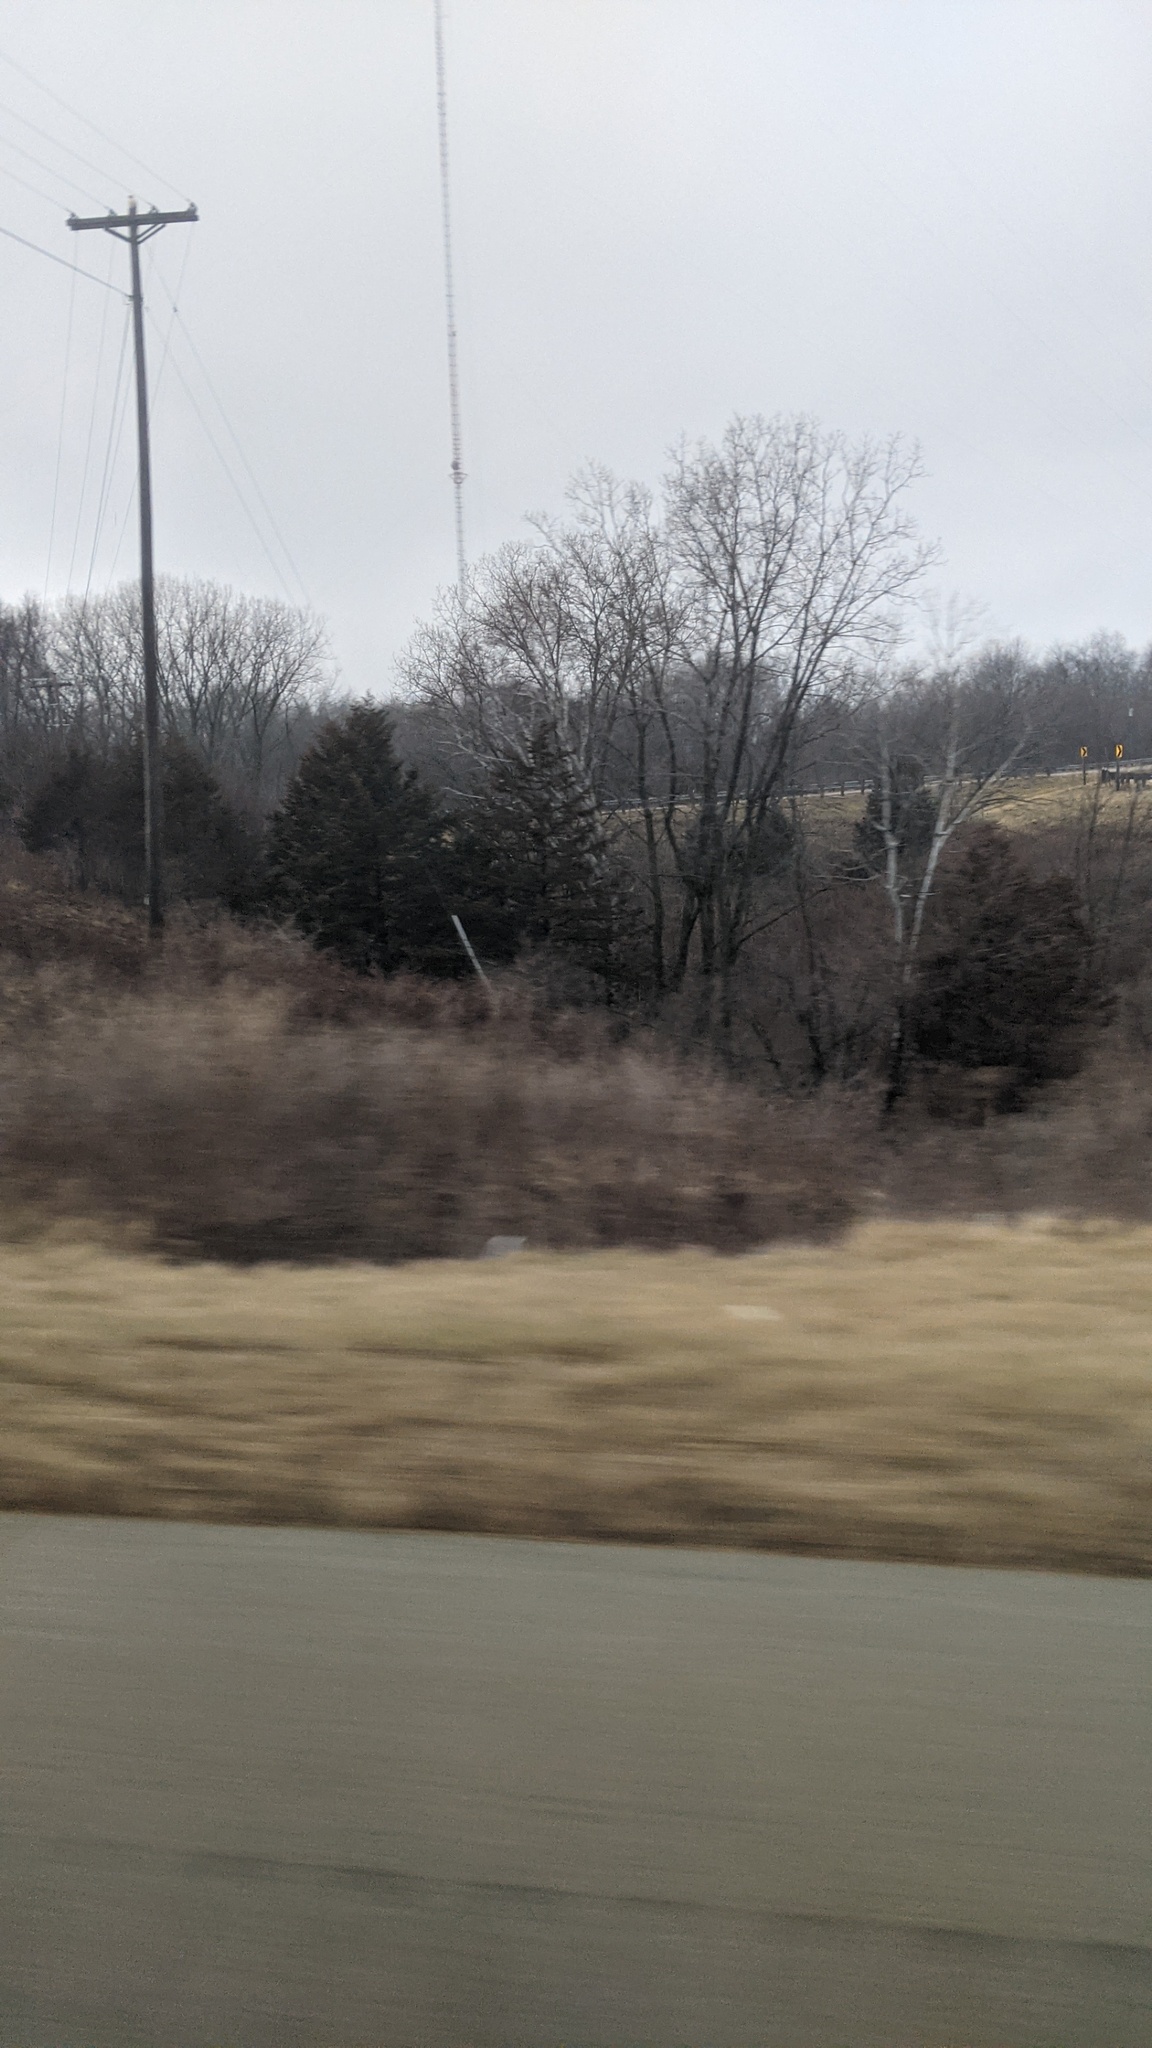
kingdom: Plantae
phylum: Tracheophyta
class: Pinopsida
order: Pinales
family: Cupressaceae
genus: Juniperus
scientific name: Juniperus virginiana
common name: Red juniper
